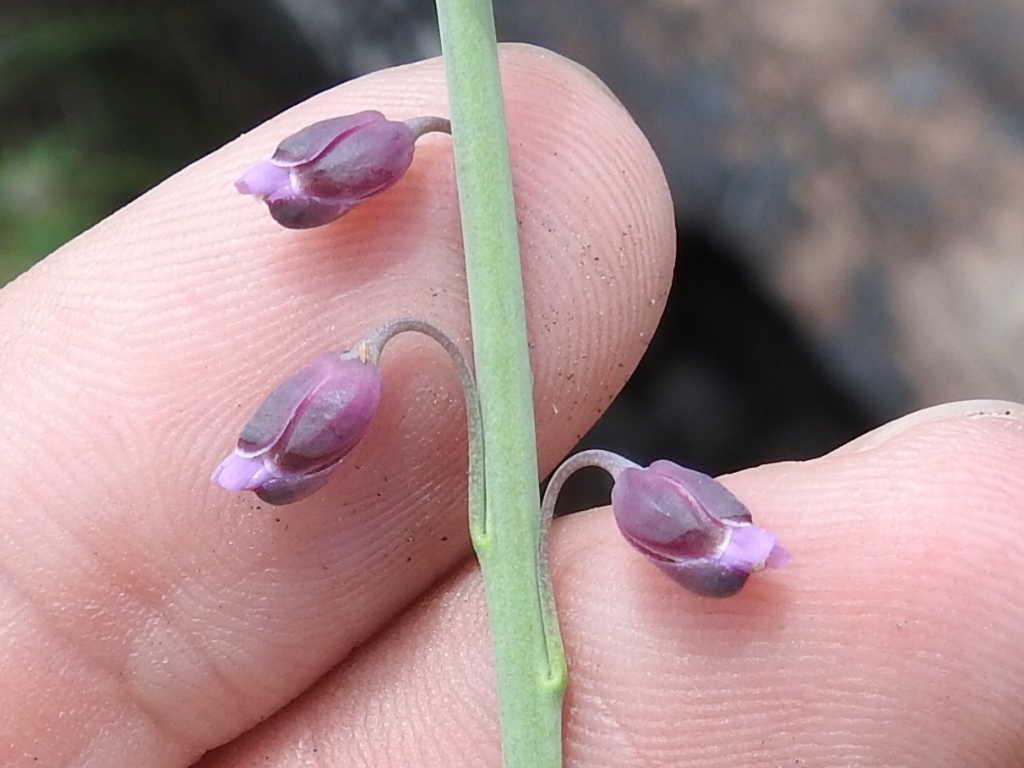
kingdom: Plantae
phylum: Tracheophyta
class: Magnoliopsida
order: Brassicales
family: Brassicaceae
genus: Pennellia
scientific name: Pennellia longifolia
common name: Longleaf mock thelypody
